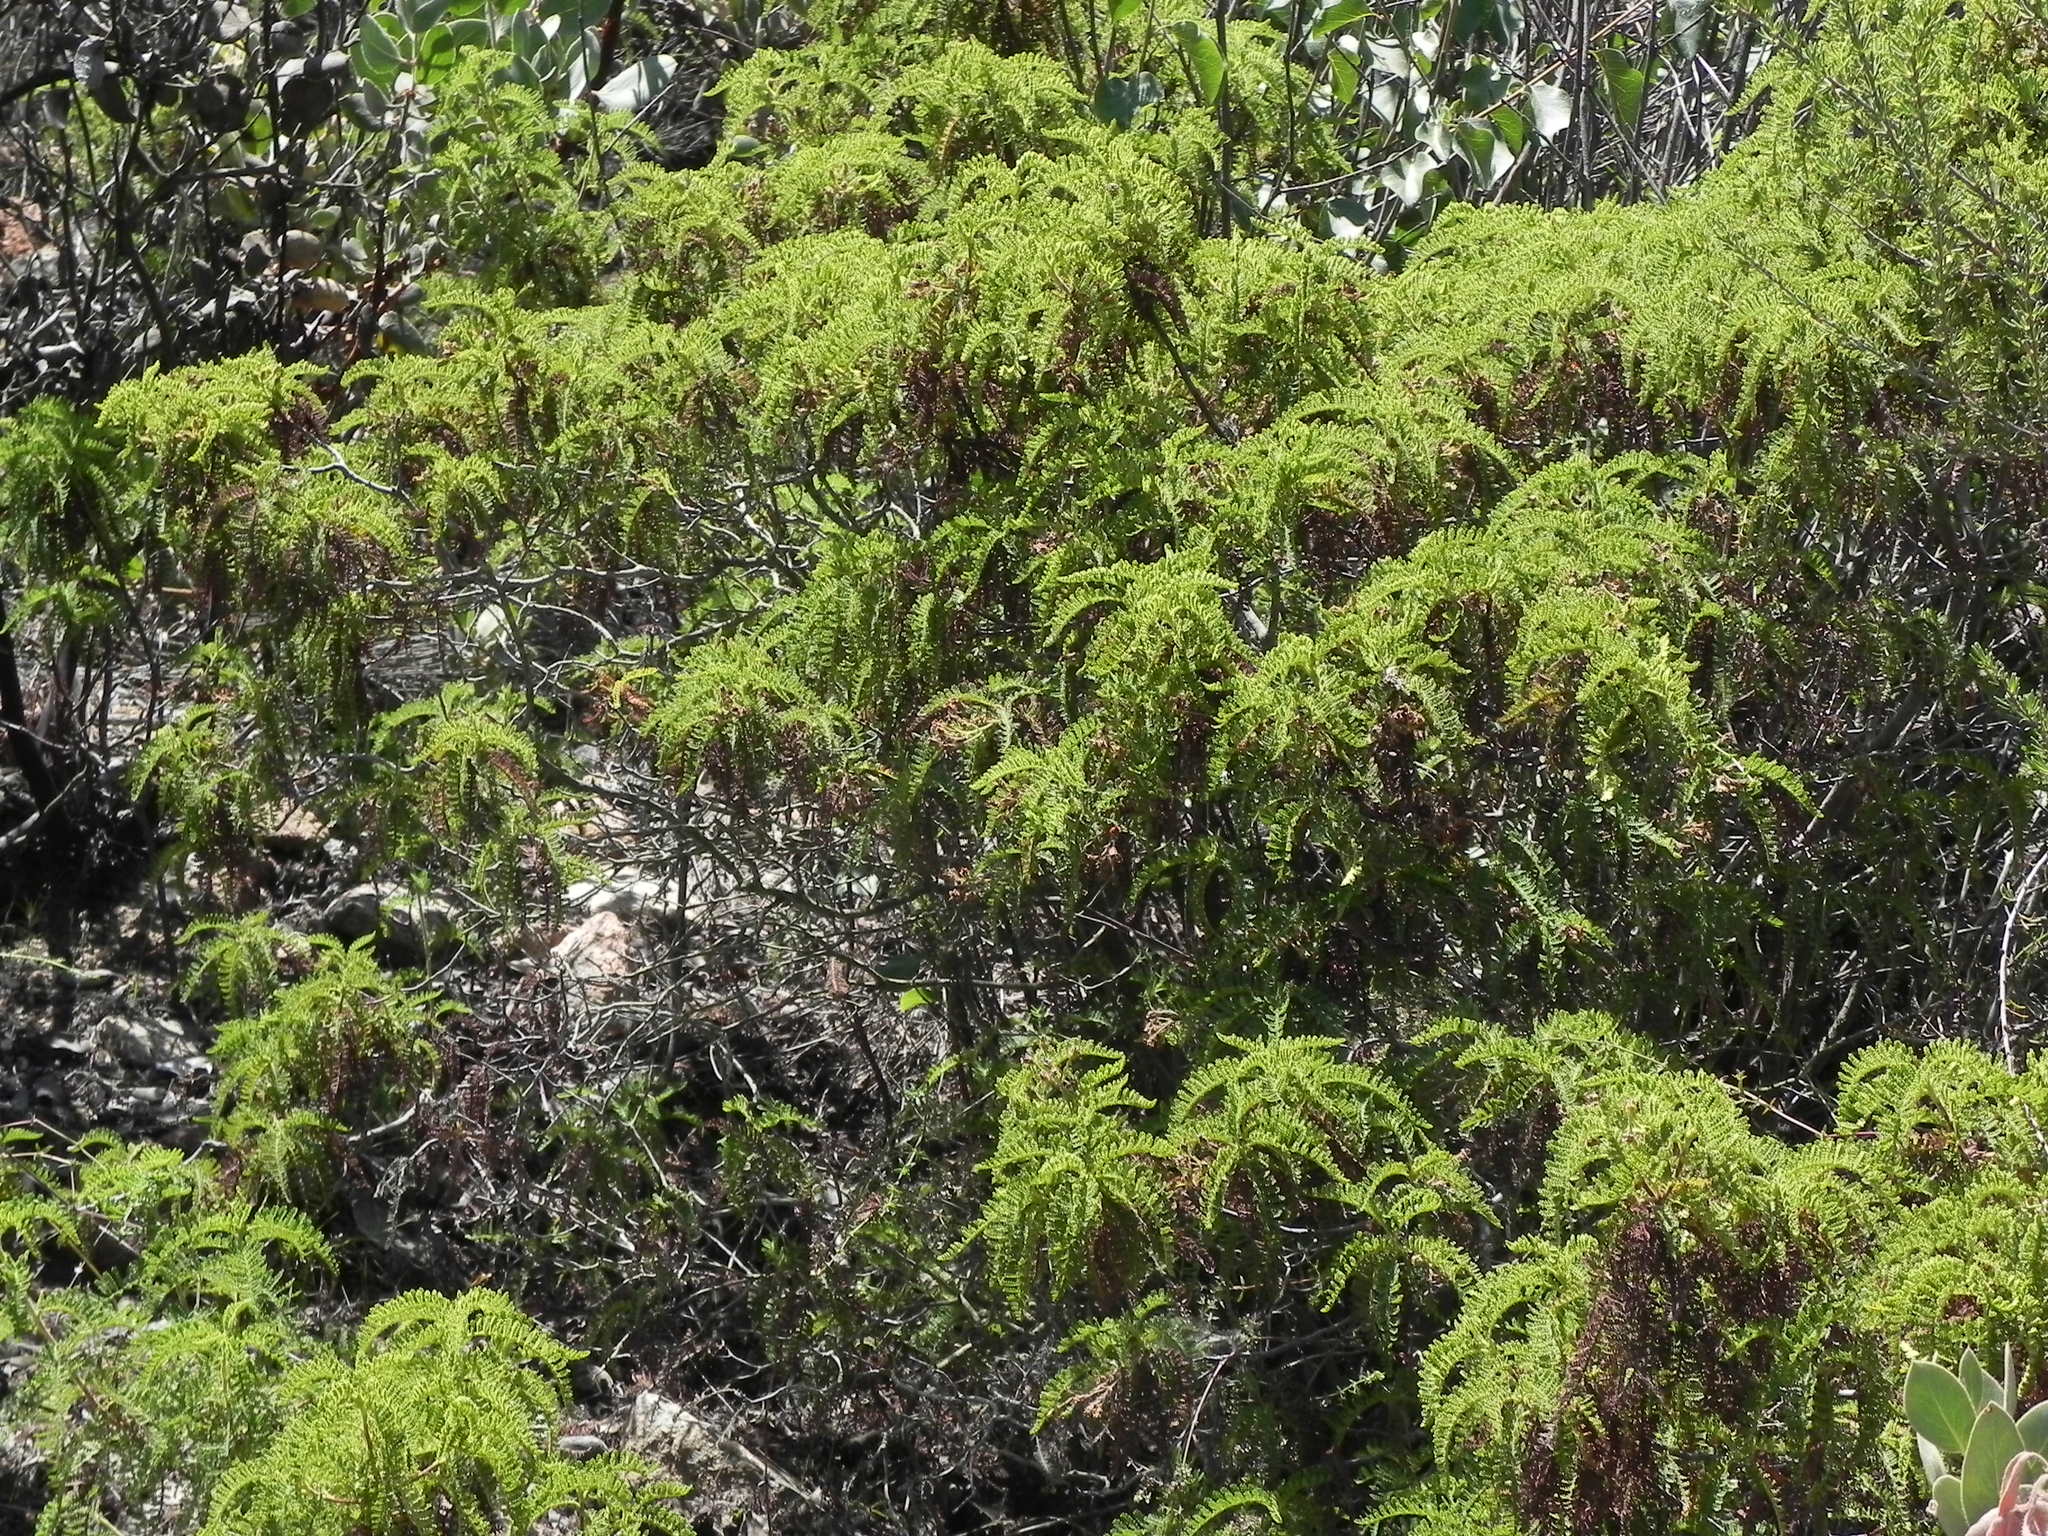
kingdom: Plantae
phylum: Tracheophyta
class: Magnoliopsida
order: Rosales
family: Rosaceae
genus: Chamaebatia
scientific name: Chamaebatia australis
